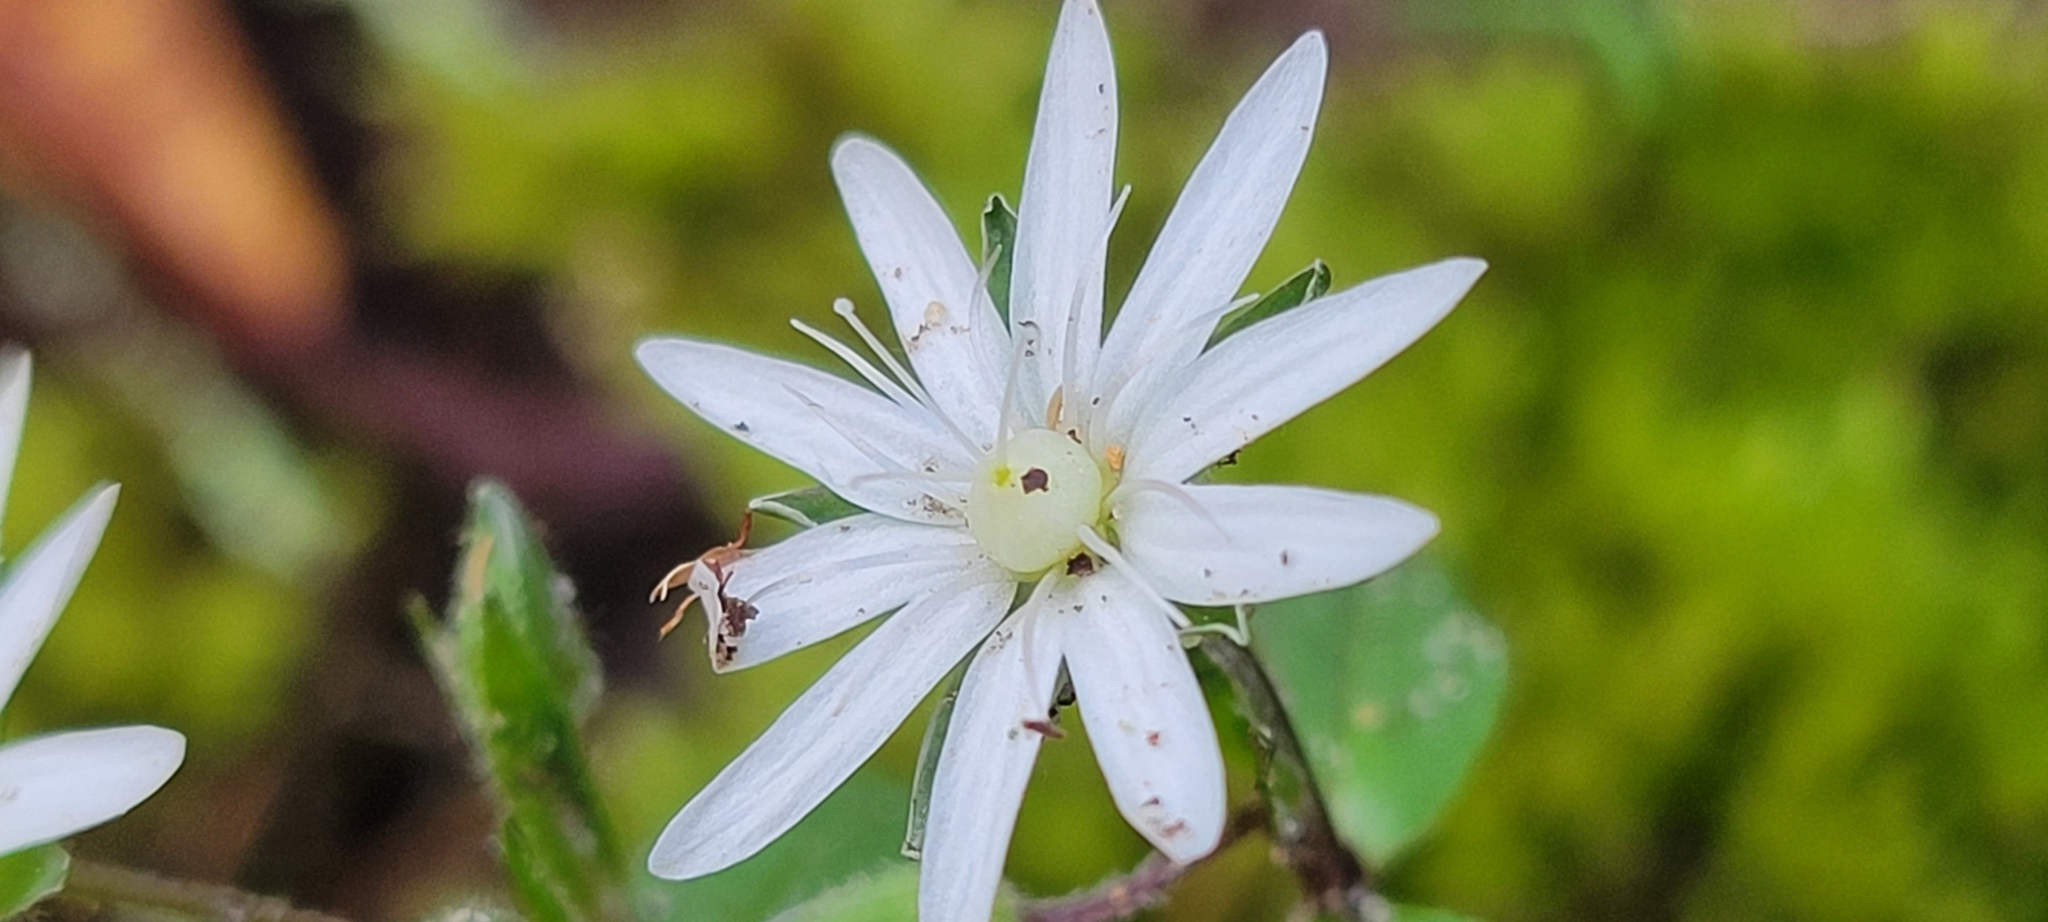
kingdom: Plantae
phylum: Tracheophyta
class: Magnoliopsida
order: Caryophyllales
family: Caryophyllaceae
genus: Stellaria
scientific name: Stellaria pubera
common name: Star chickweed
